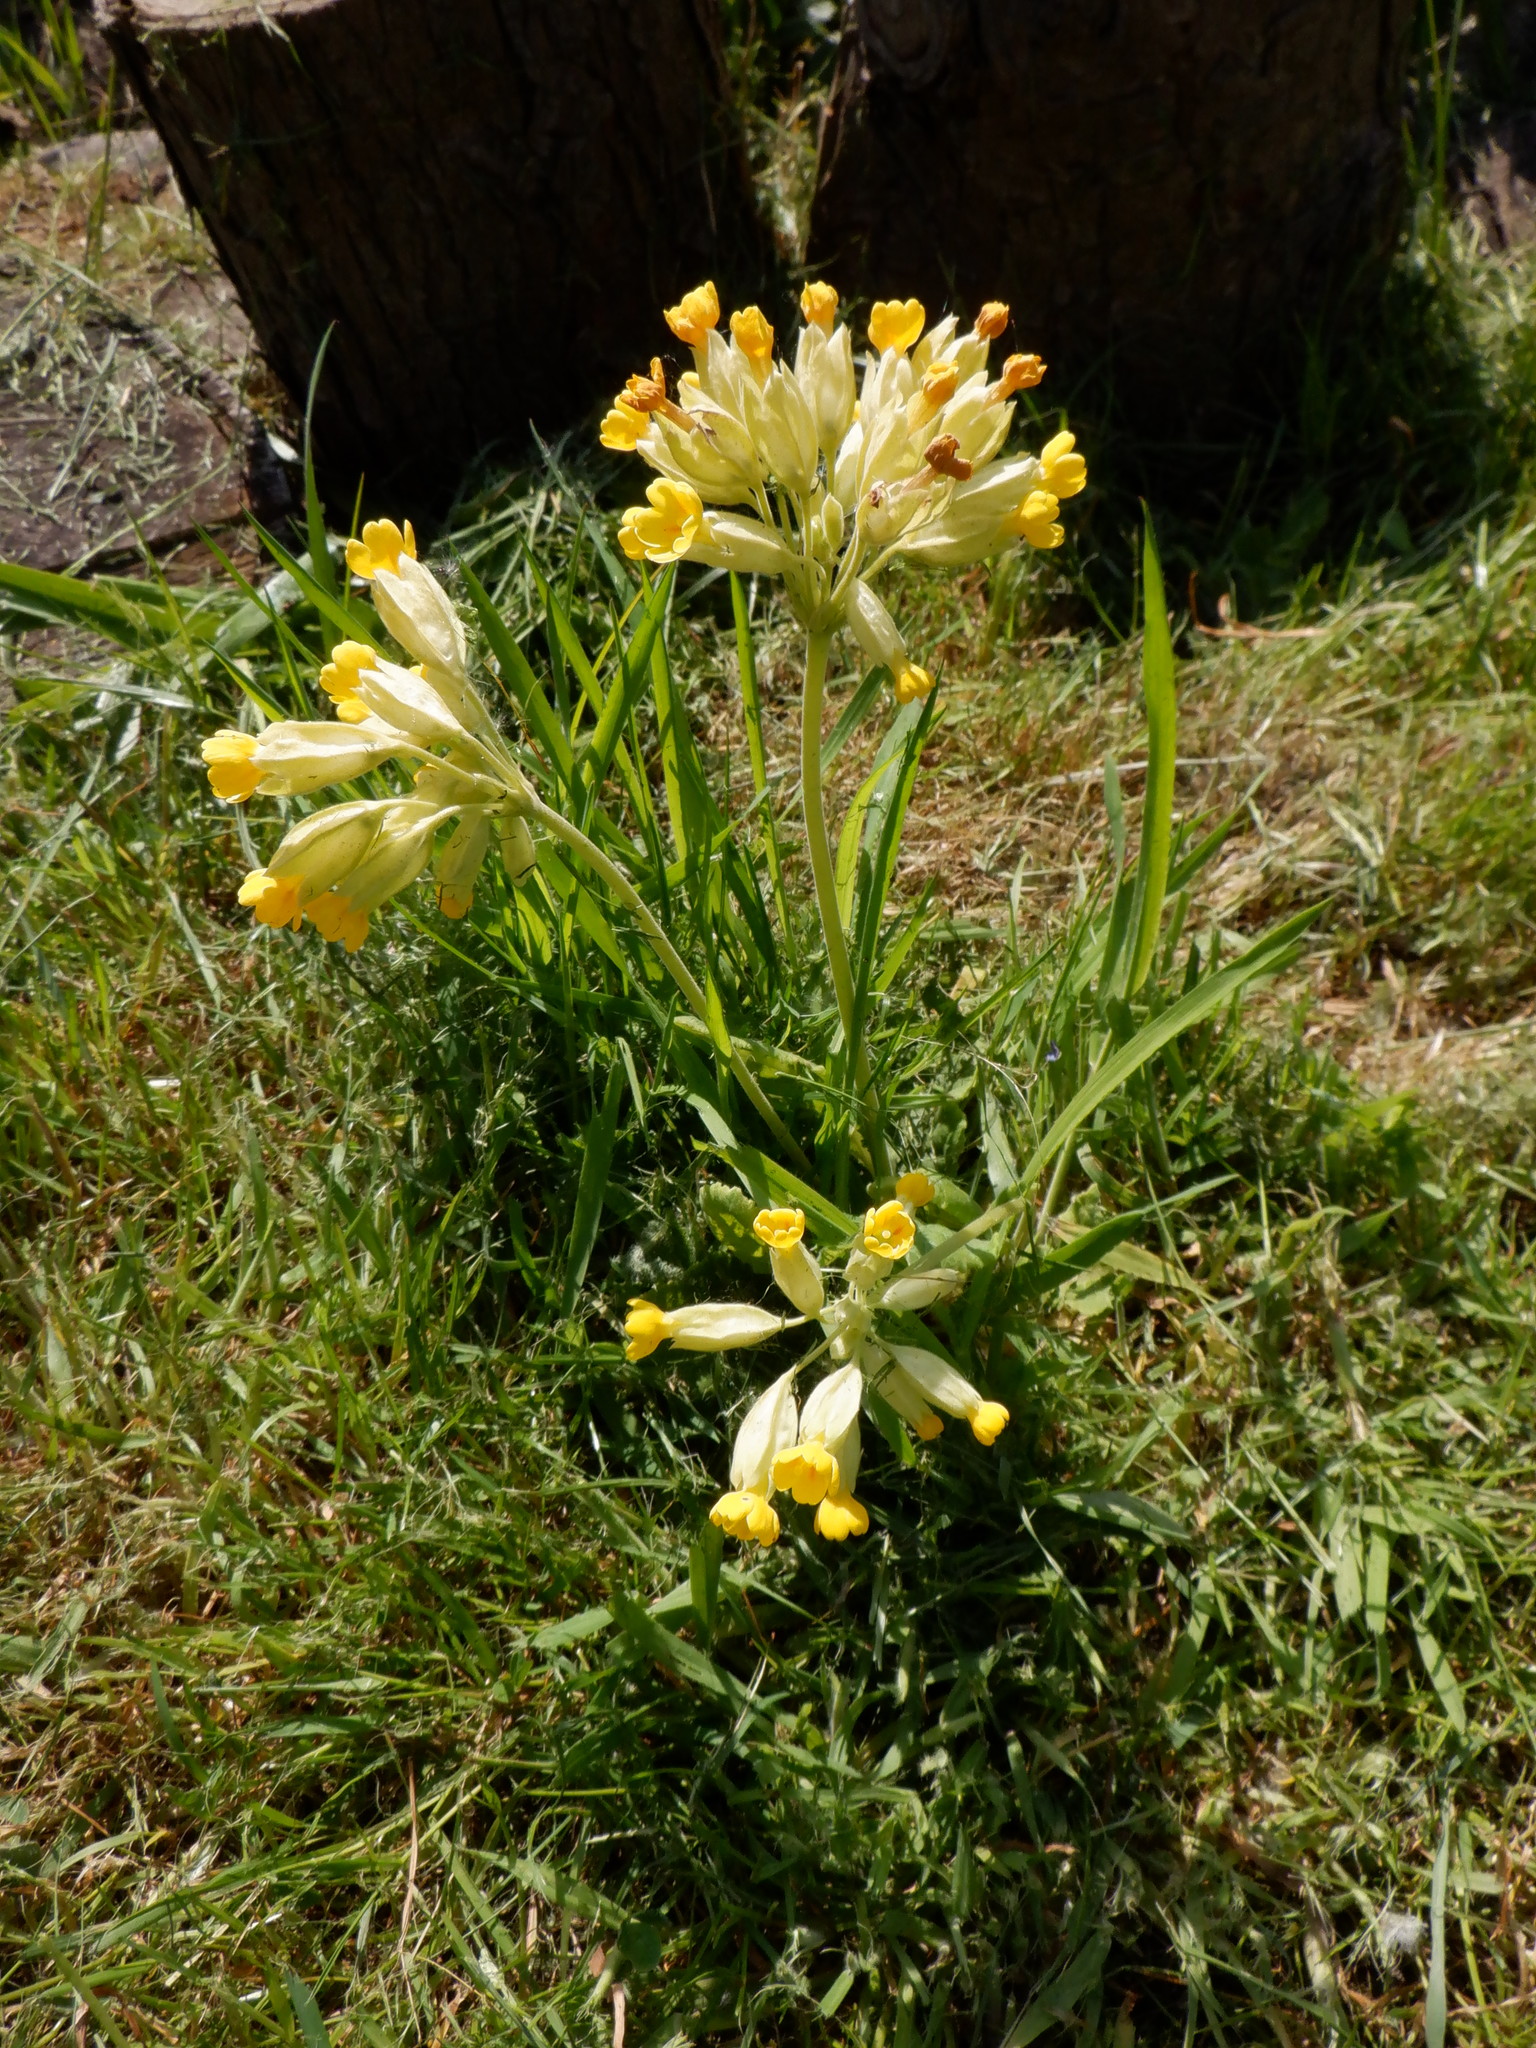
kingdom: Plantae
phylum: Tracheophyta
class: Magnoliopsida
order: Ericales
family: Primulaceae
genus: Primula
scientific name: Primula veris
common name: Cowslip
